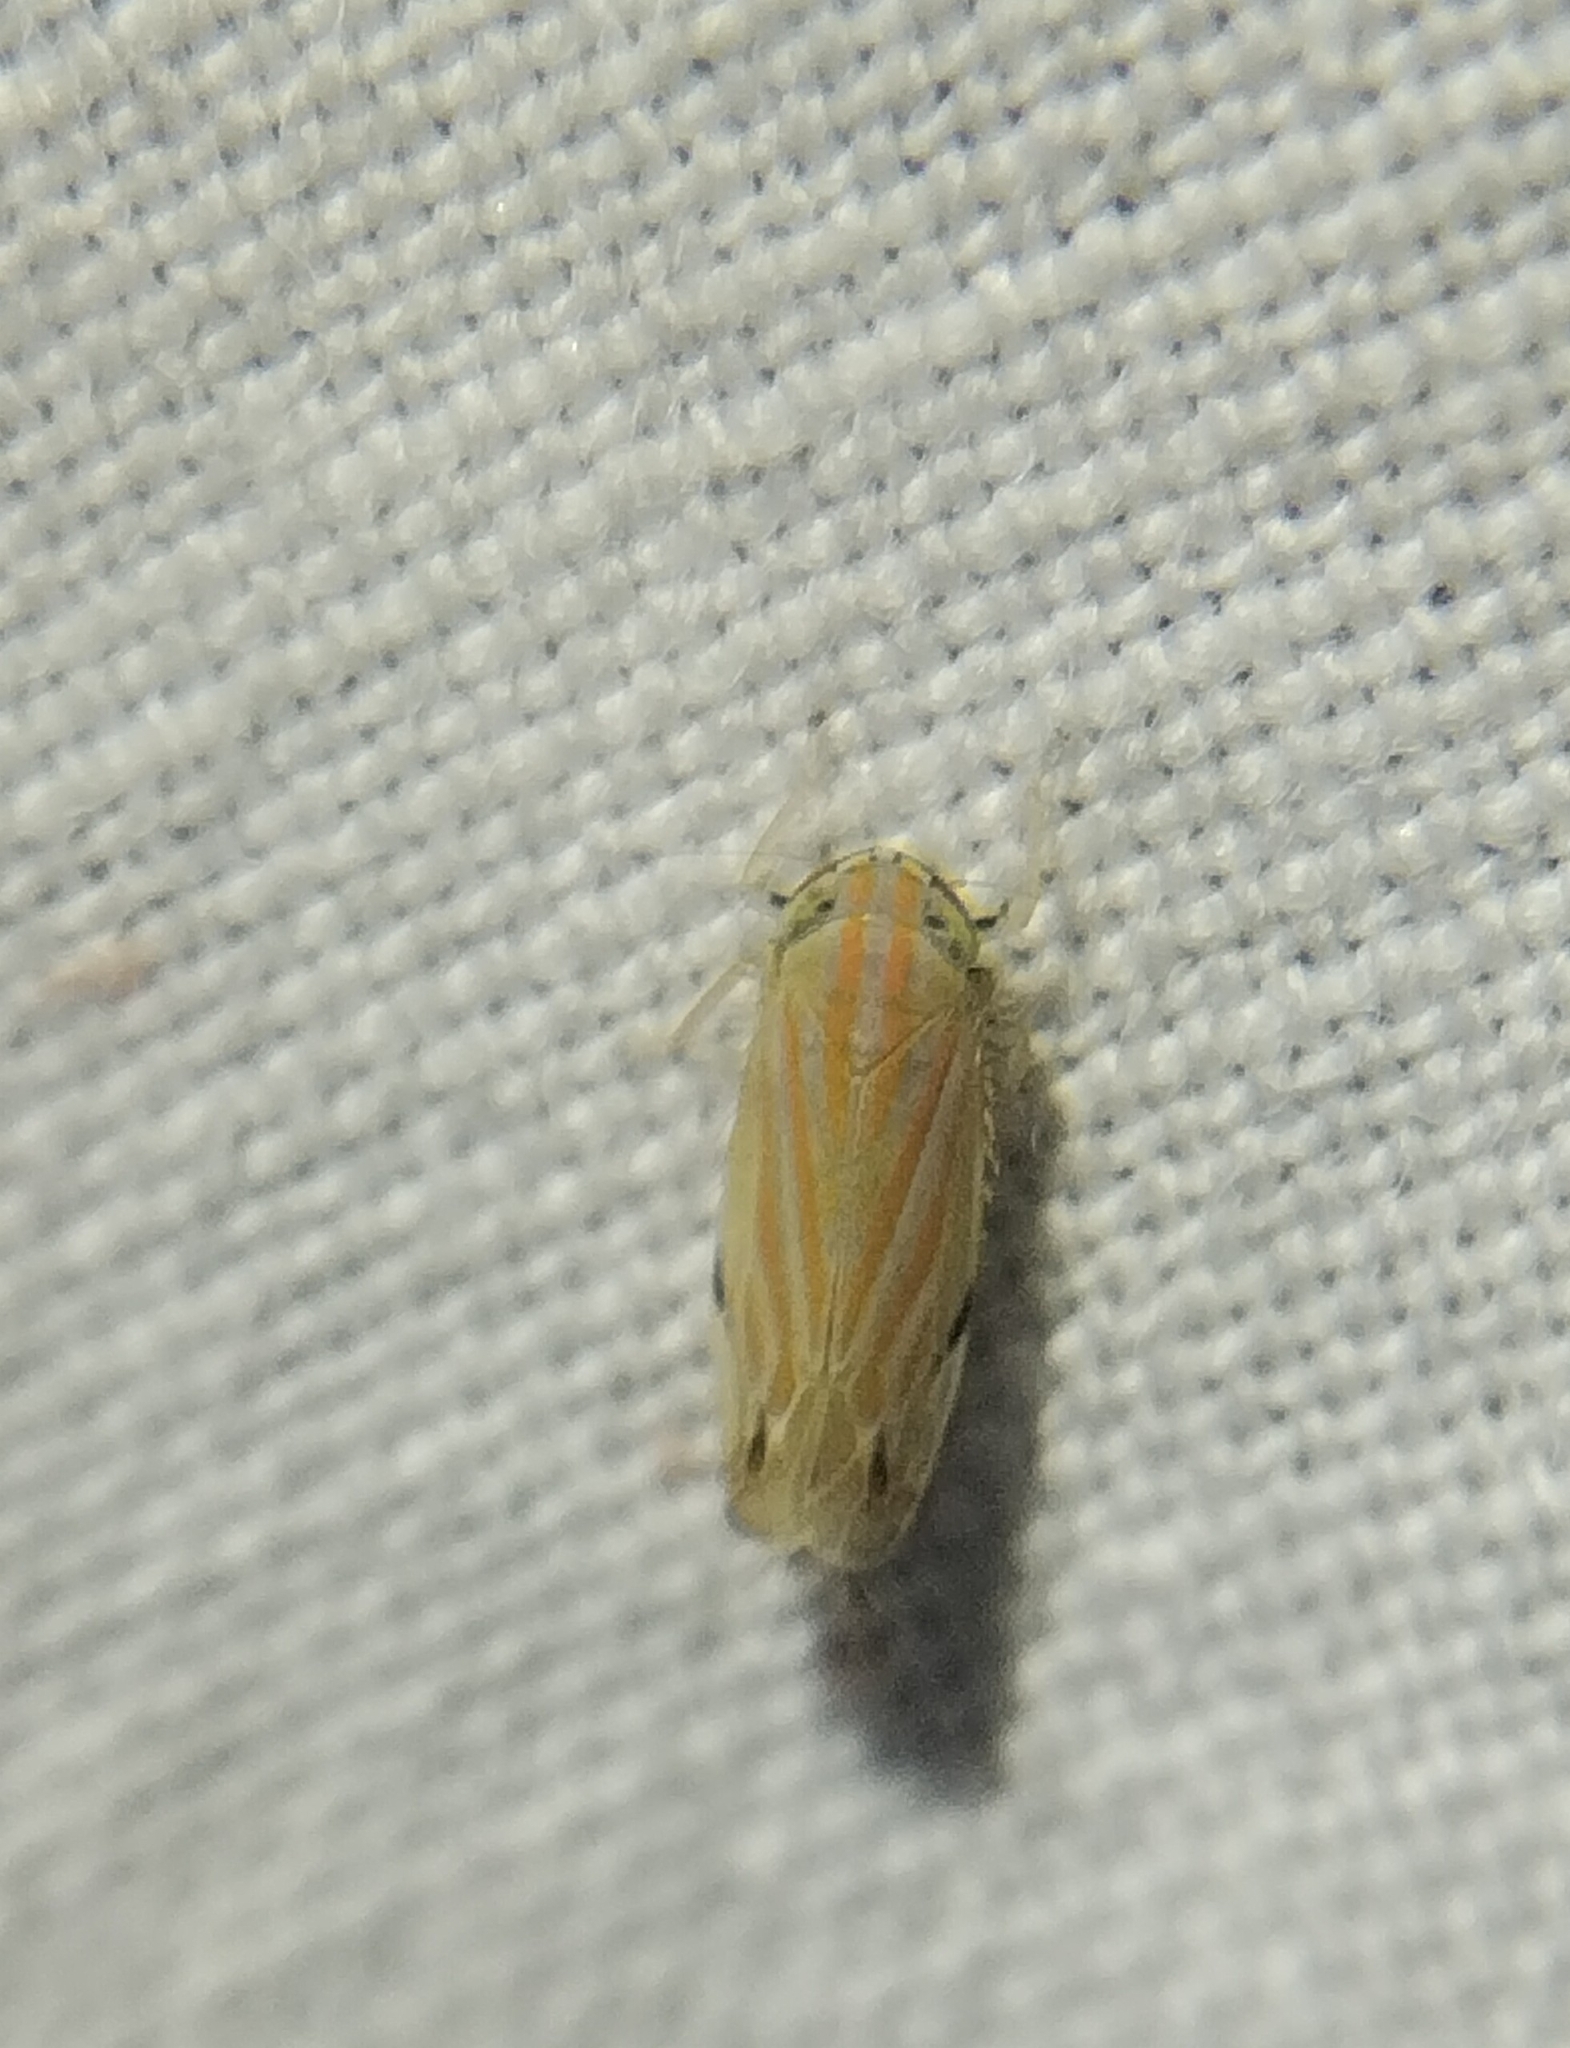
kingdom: Animalia
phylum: Arthropoda
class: Insecta
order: Hemiptera
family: Cicadellidae
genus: Deltanus
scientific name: Deltanus texanus
